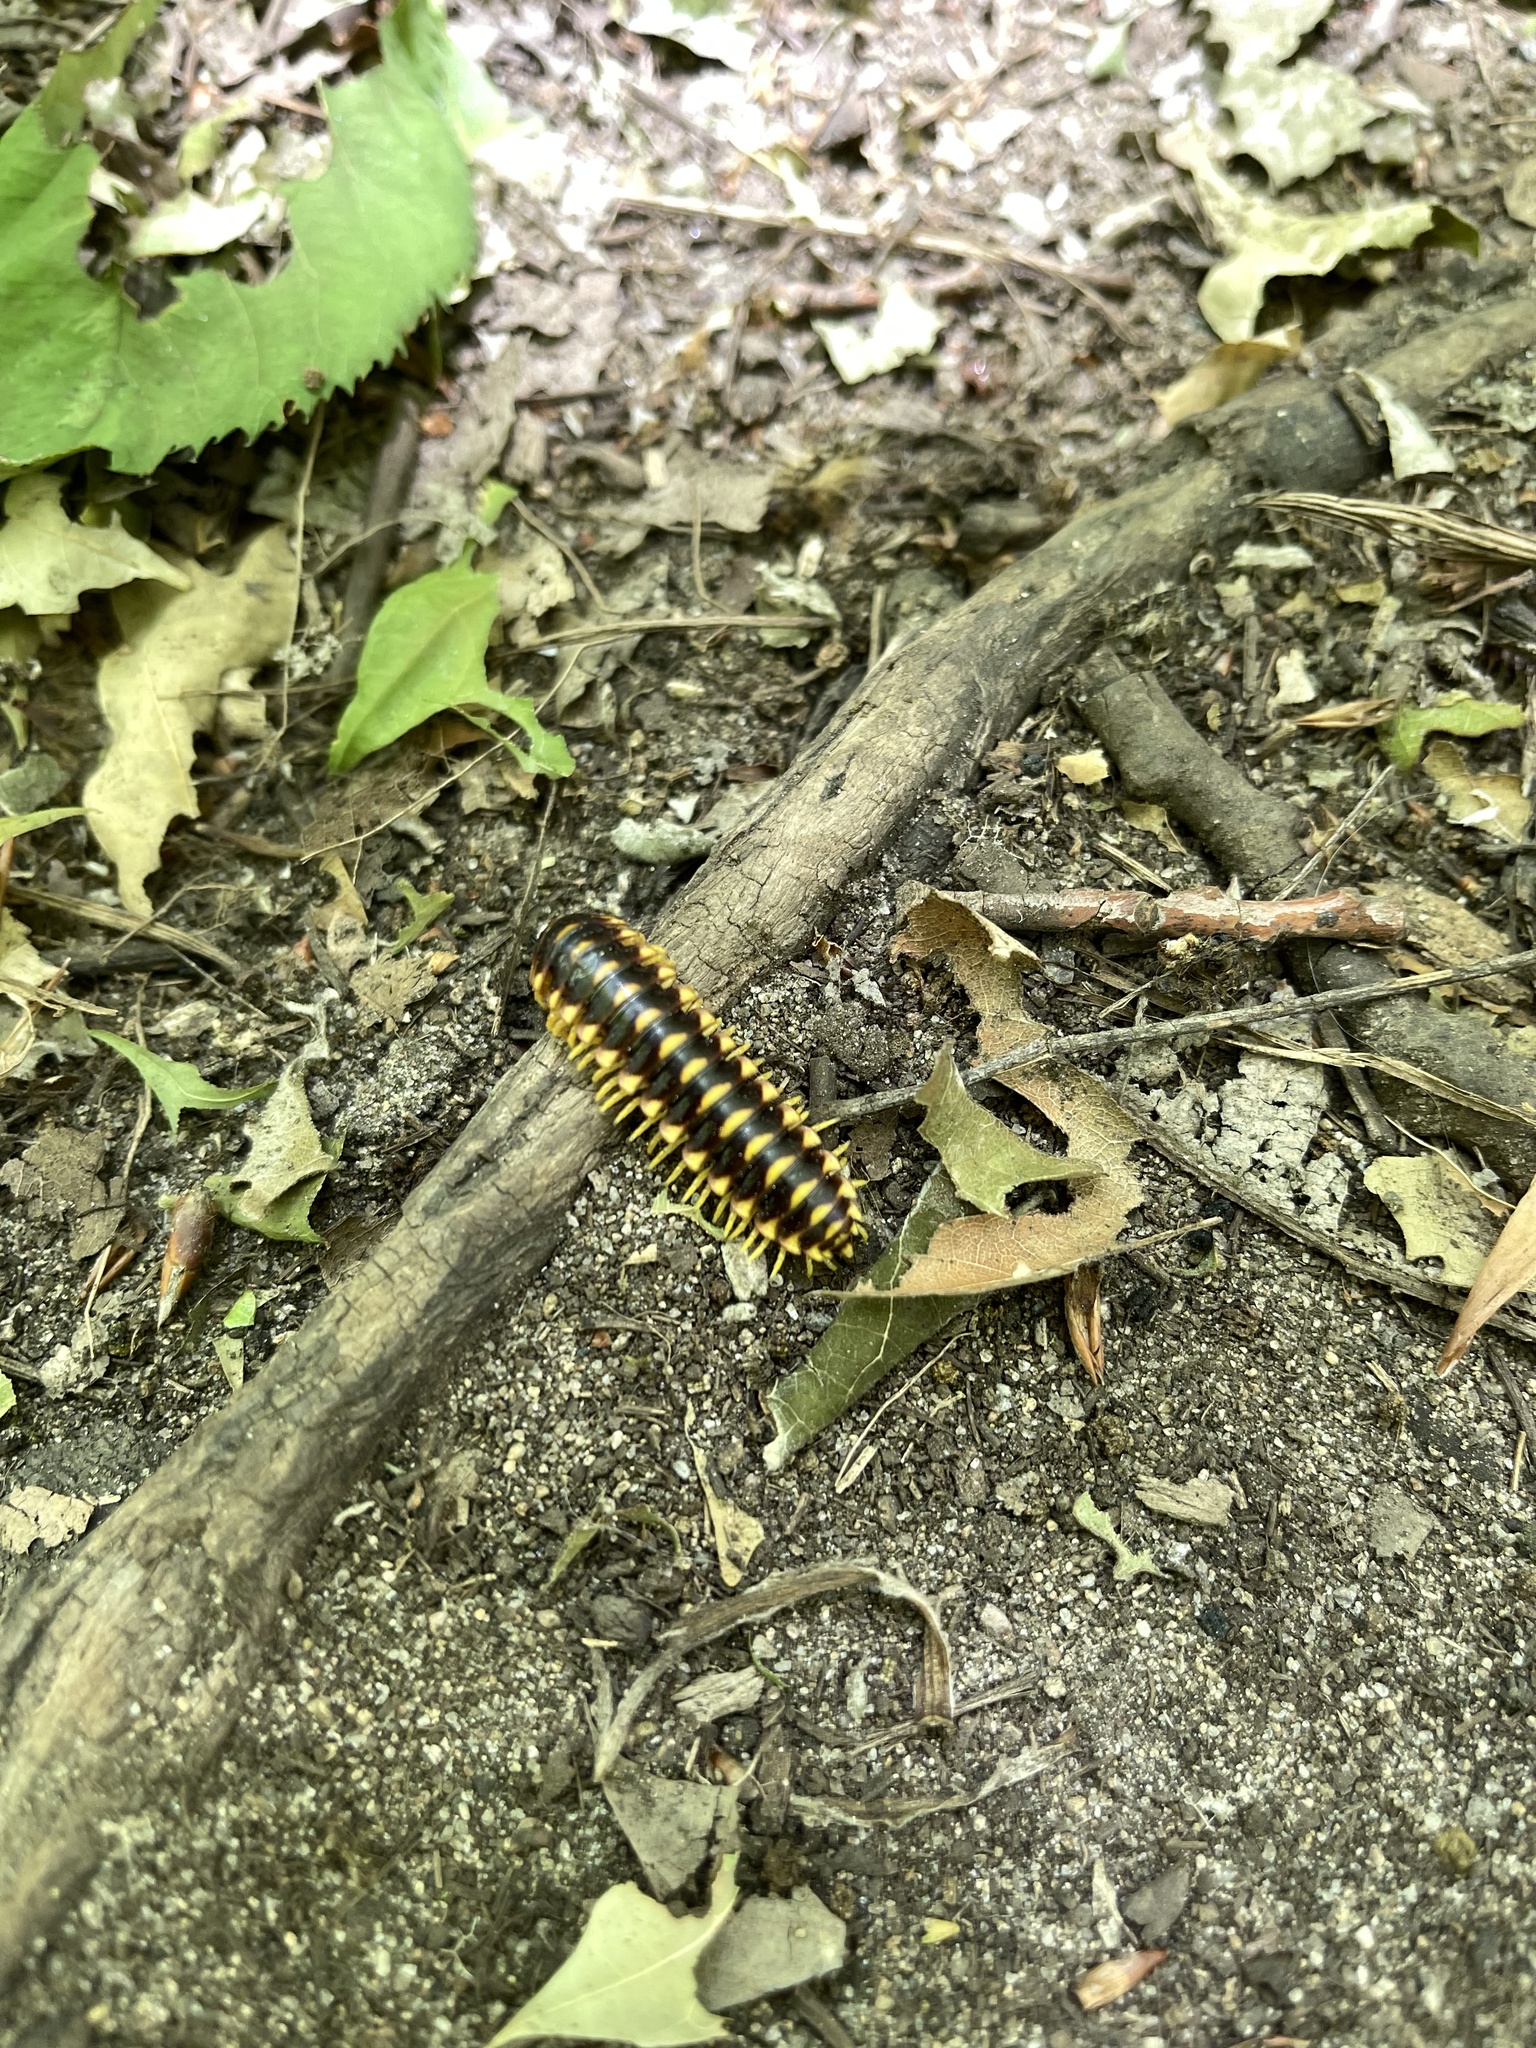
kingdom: Animalia
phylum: Arthropoda
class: Diplopoda
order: Polydesmida
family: Xystodesmidae
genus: Rudiloria
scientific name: Rudiloria trimaculata
